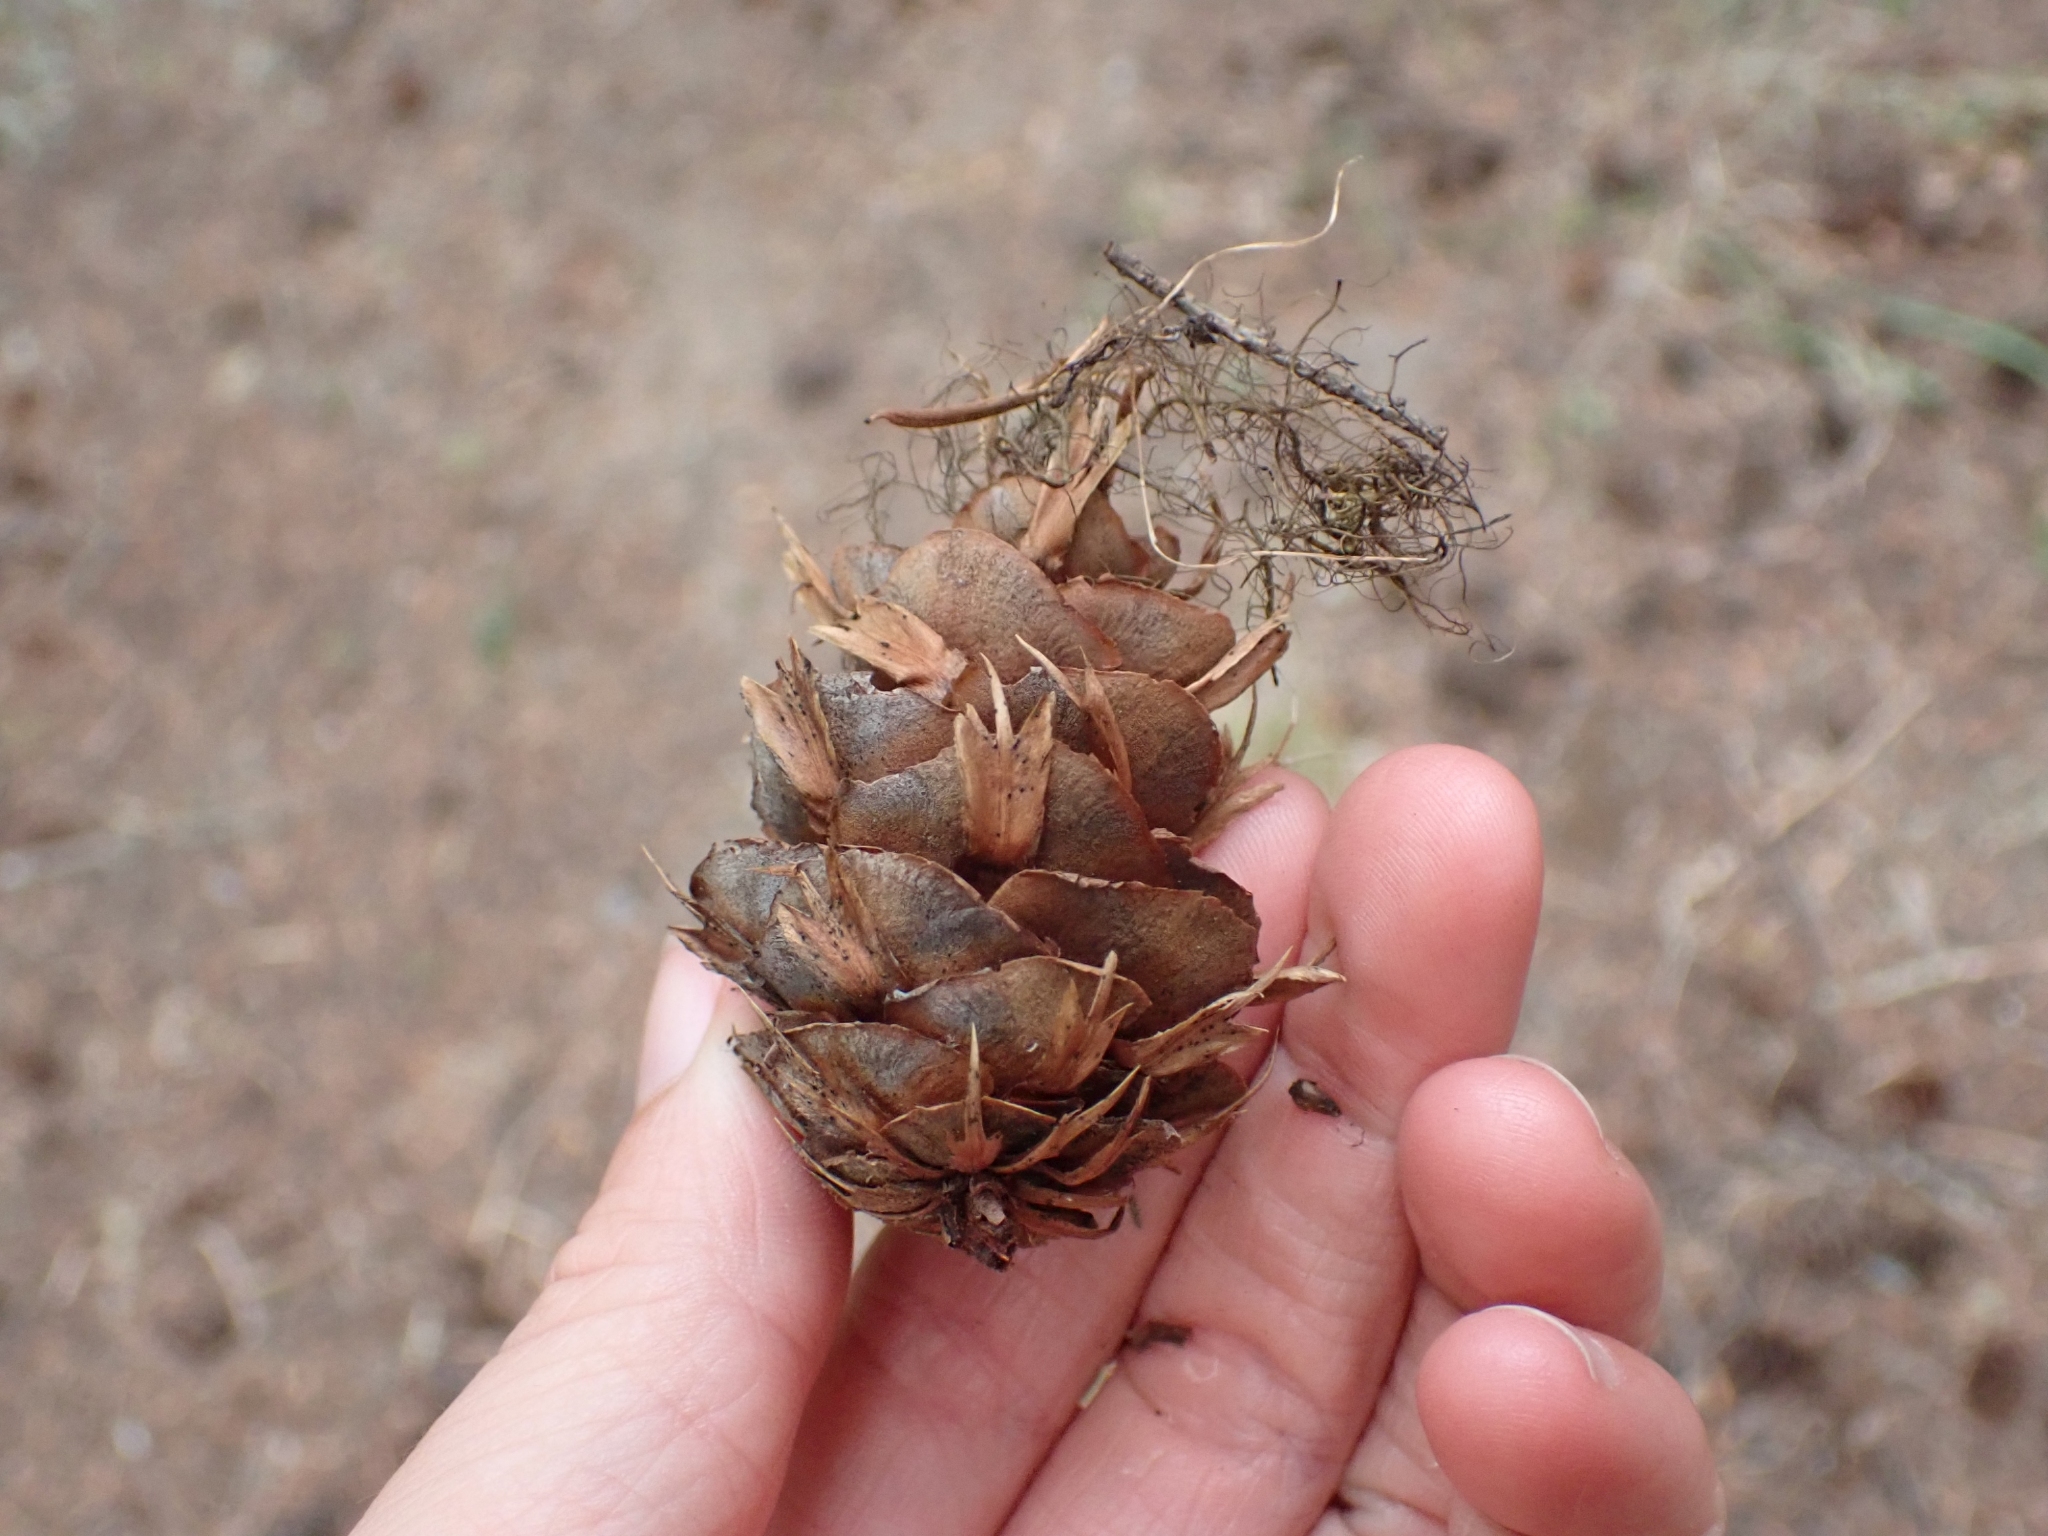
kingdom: Plantae
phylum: Tracheophyta
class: Pinopsida
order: Pinales
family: Pinaceae
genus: Pseudotsuga
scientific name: Pseudotsuga menziesii
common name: Douglas fir
